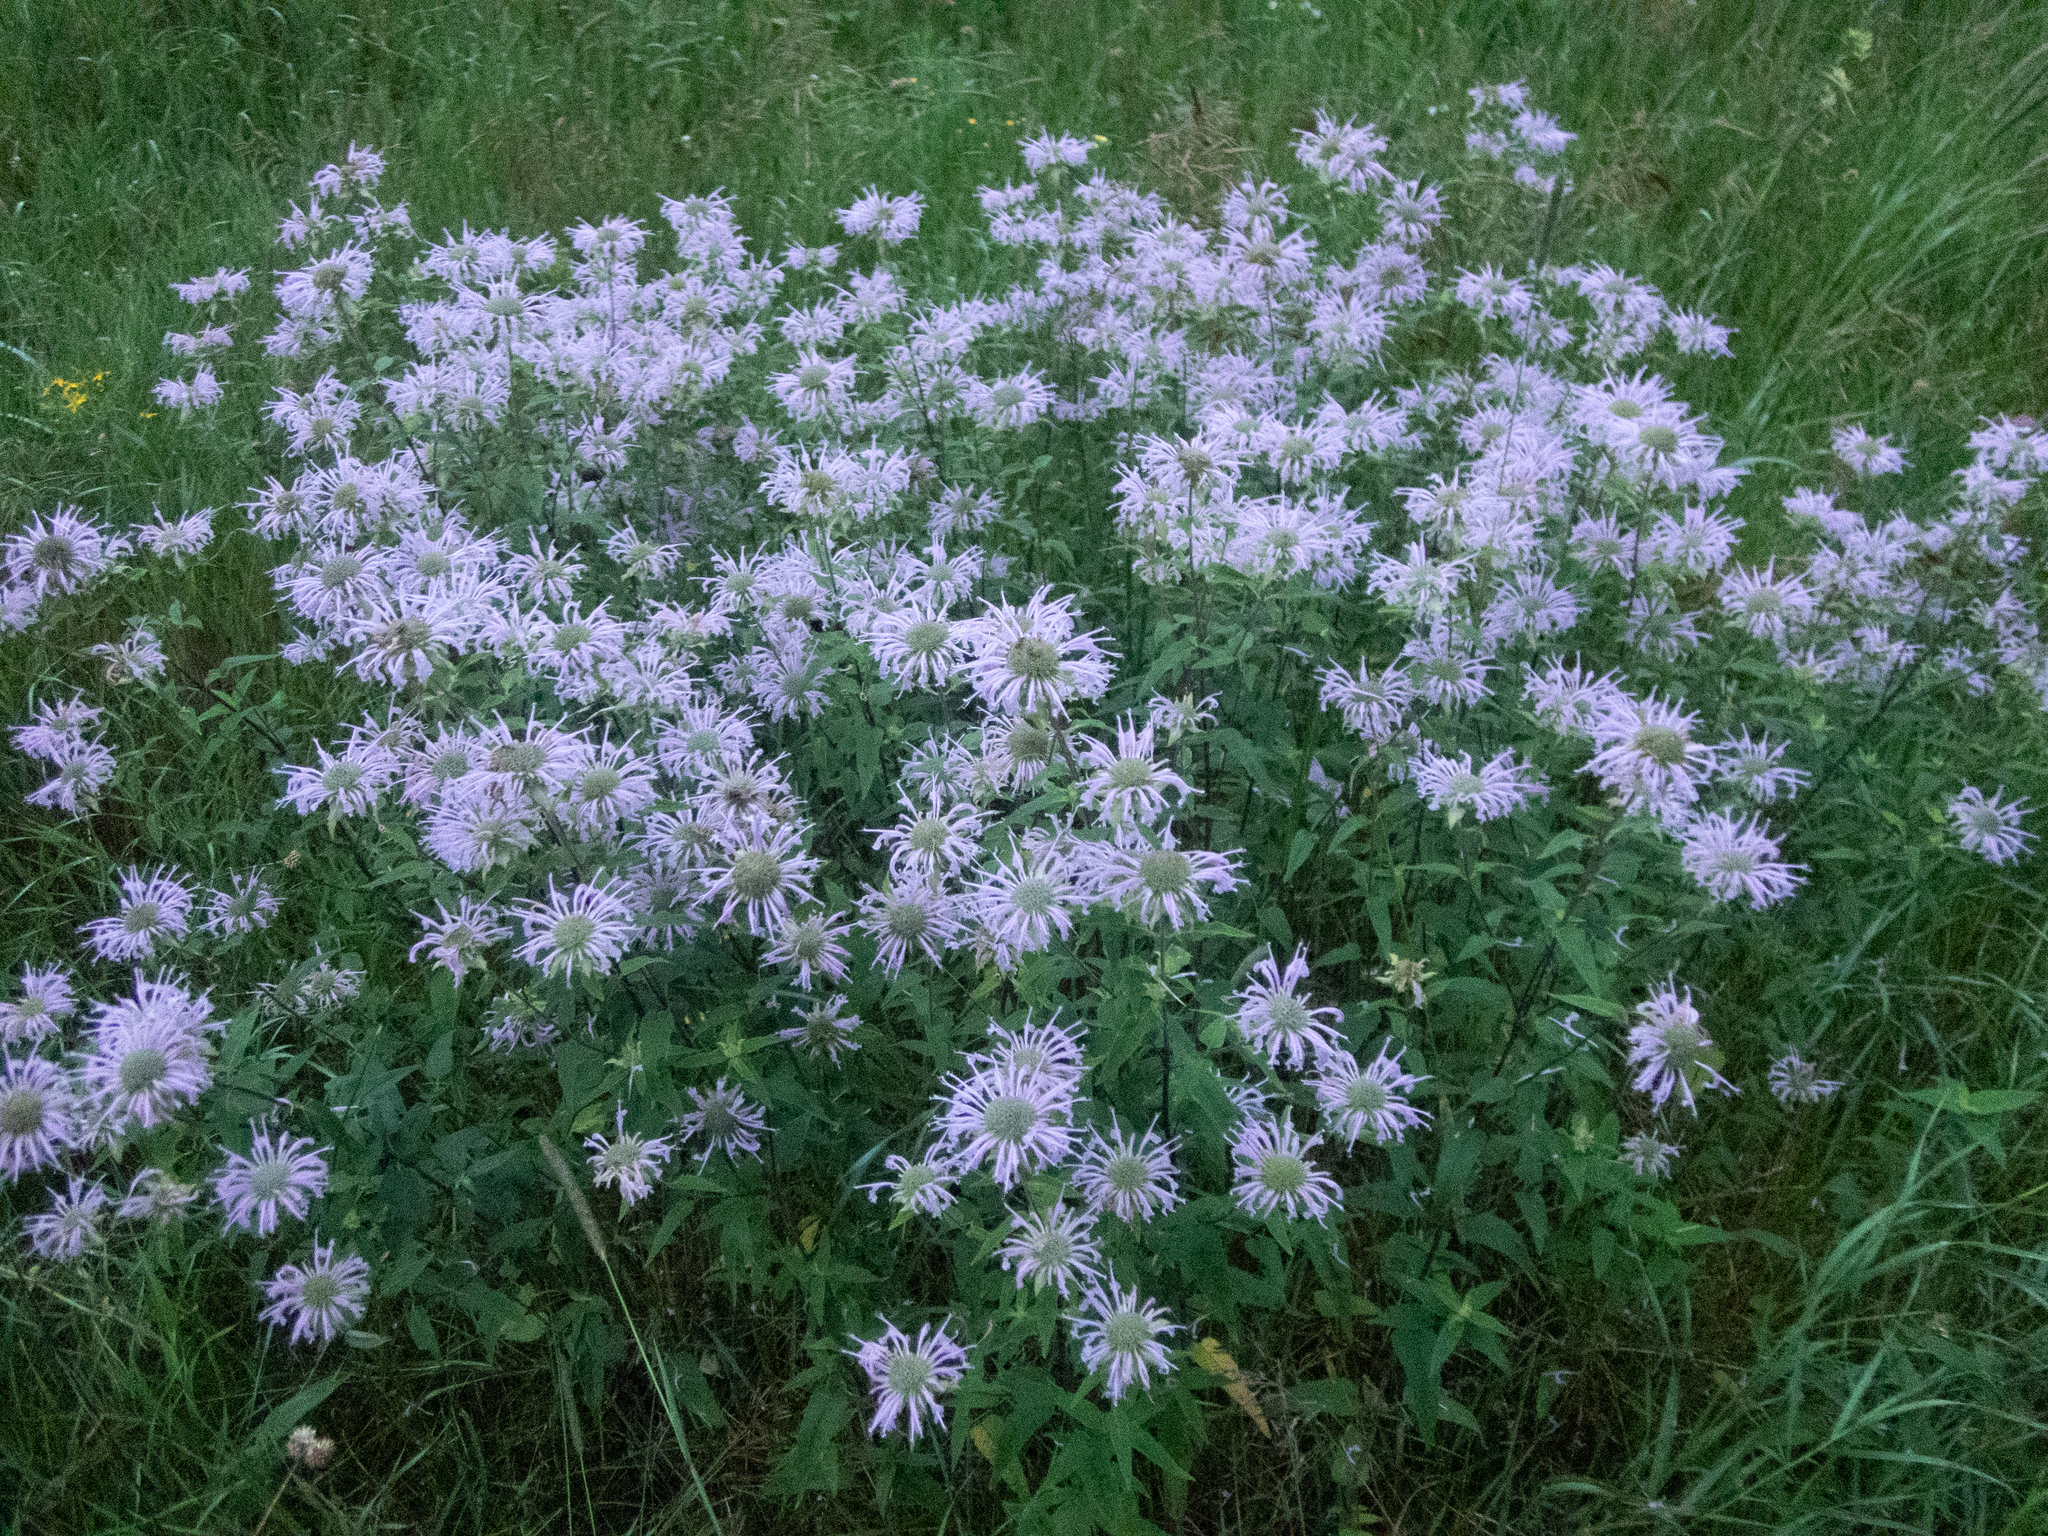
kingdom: Plantae
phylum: Tracheophyta
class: Magnoliopsida
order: Lamiales
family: Lamiaceae
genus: Monarda
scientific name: Monarda fistulosa
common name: Purple beebalm
